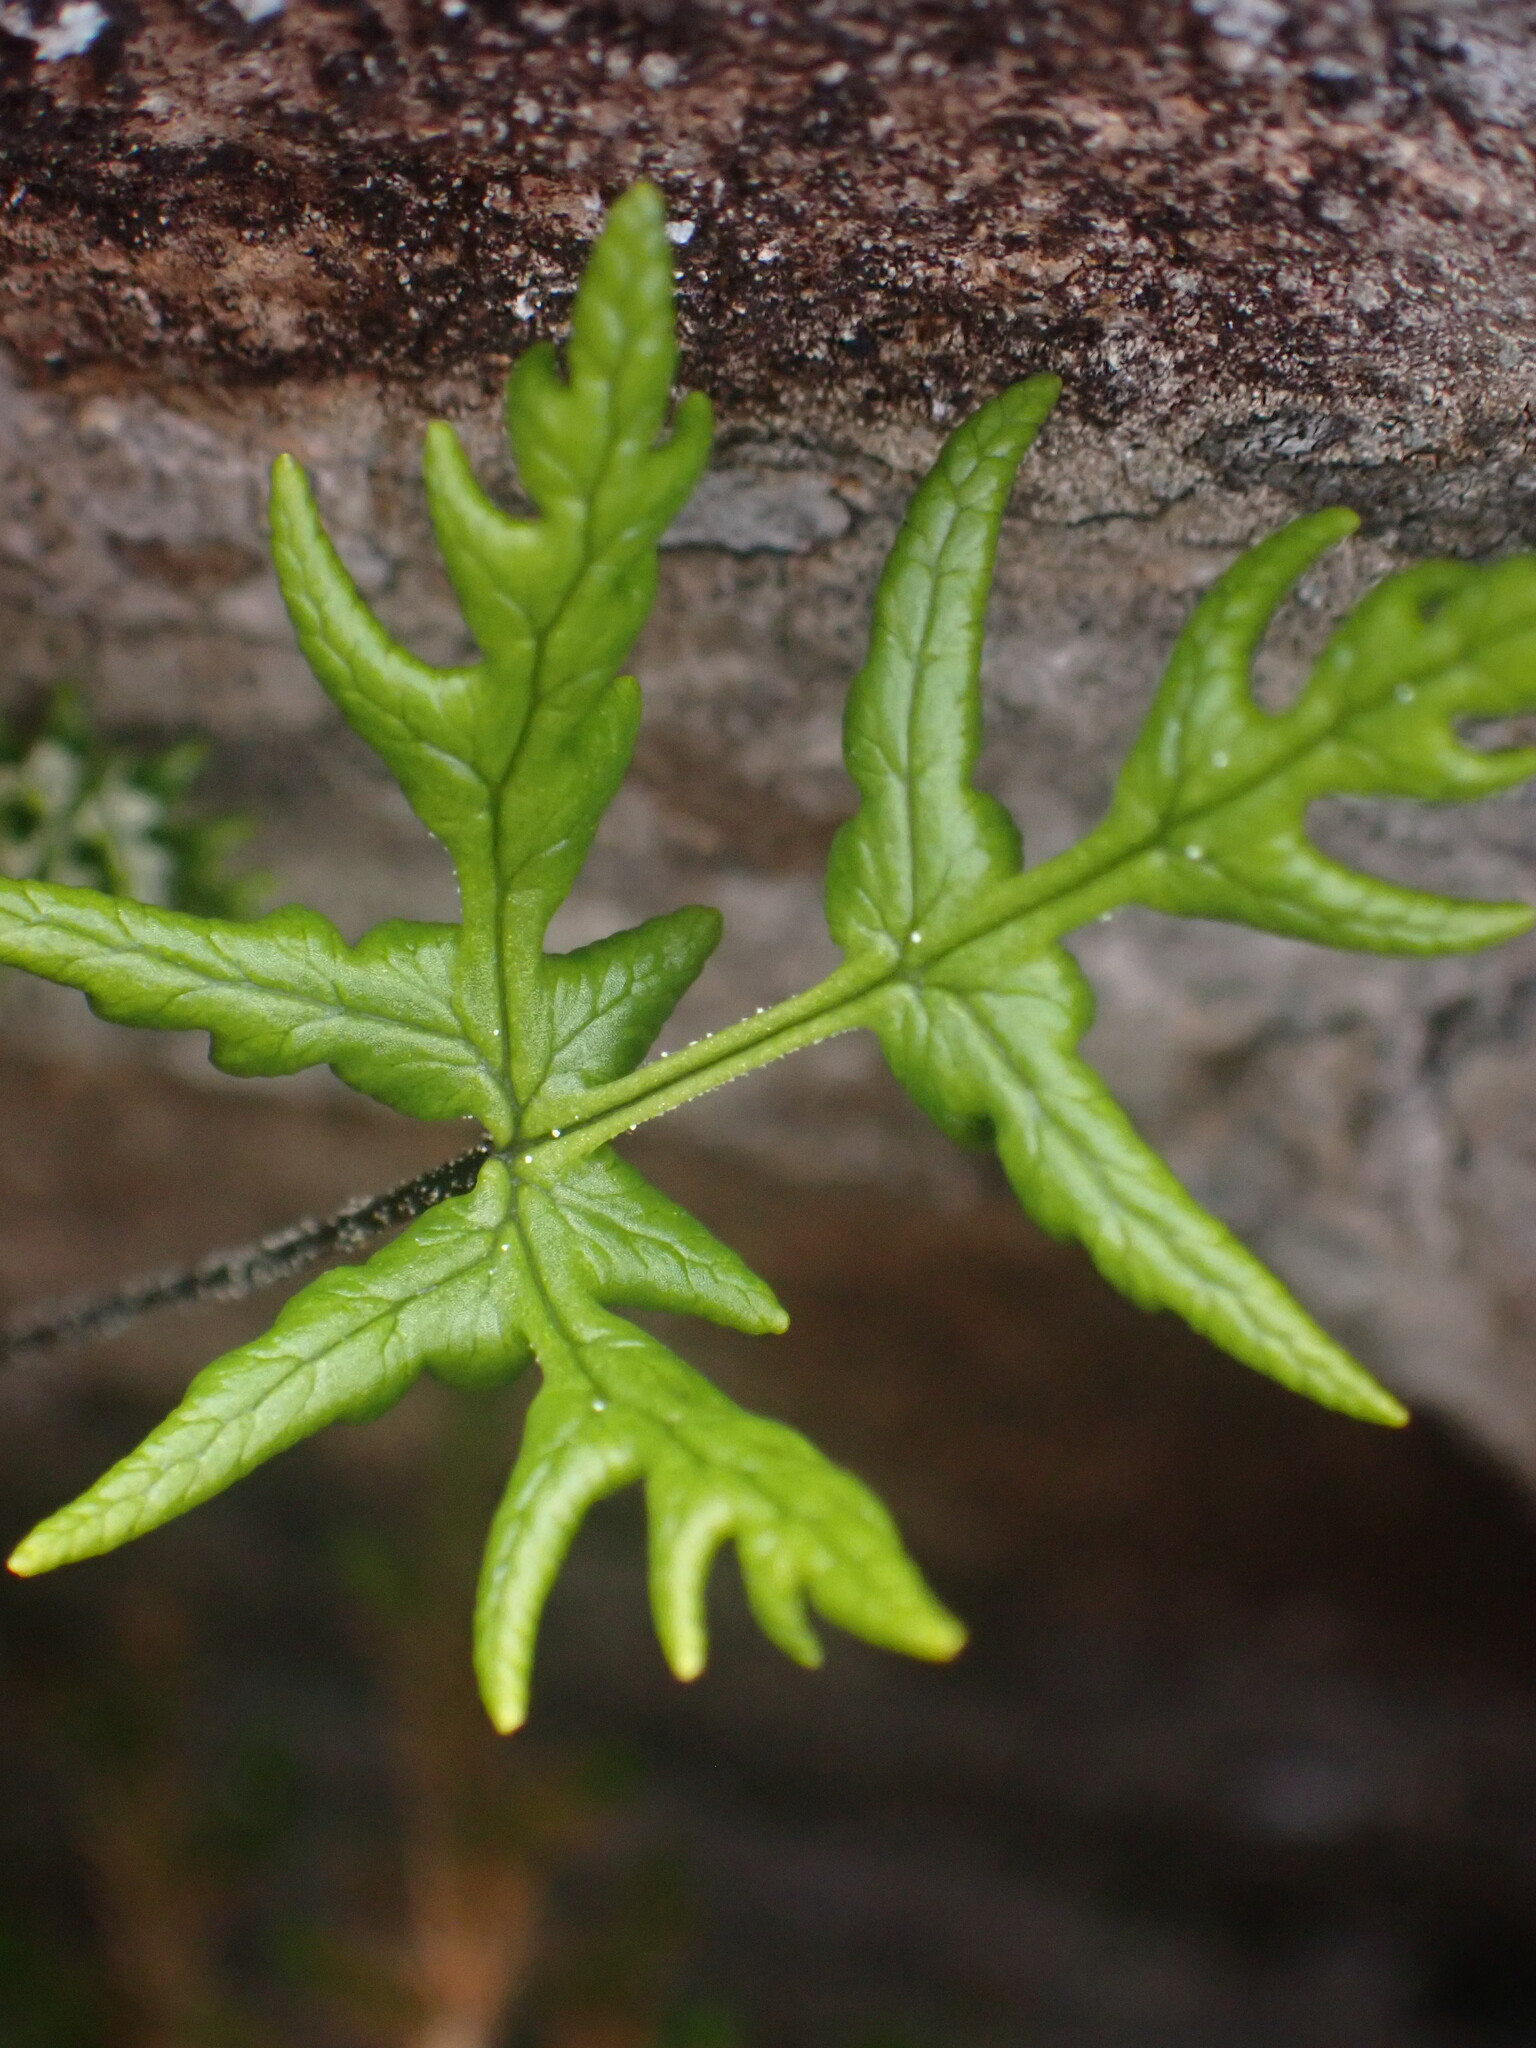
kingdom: Plantae
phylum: Tracheophyta
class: Polypodiopsida
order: Polypodiales
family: Pteridaceae
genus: Pentagramma
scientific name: Pentagramma triangularis
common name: Gold fern
